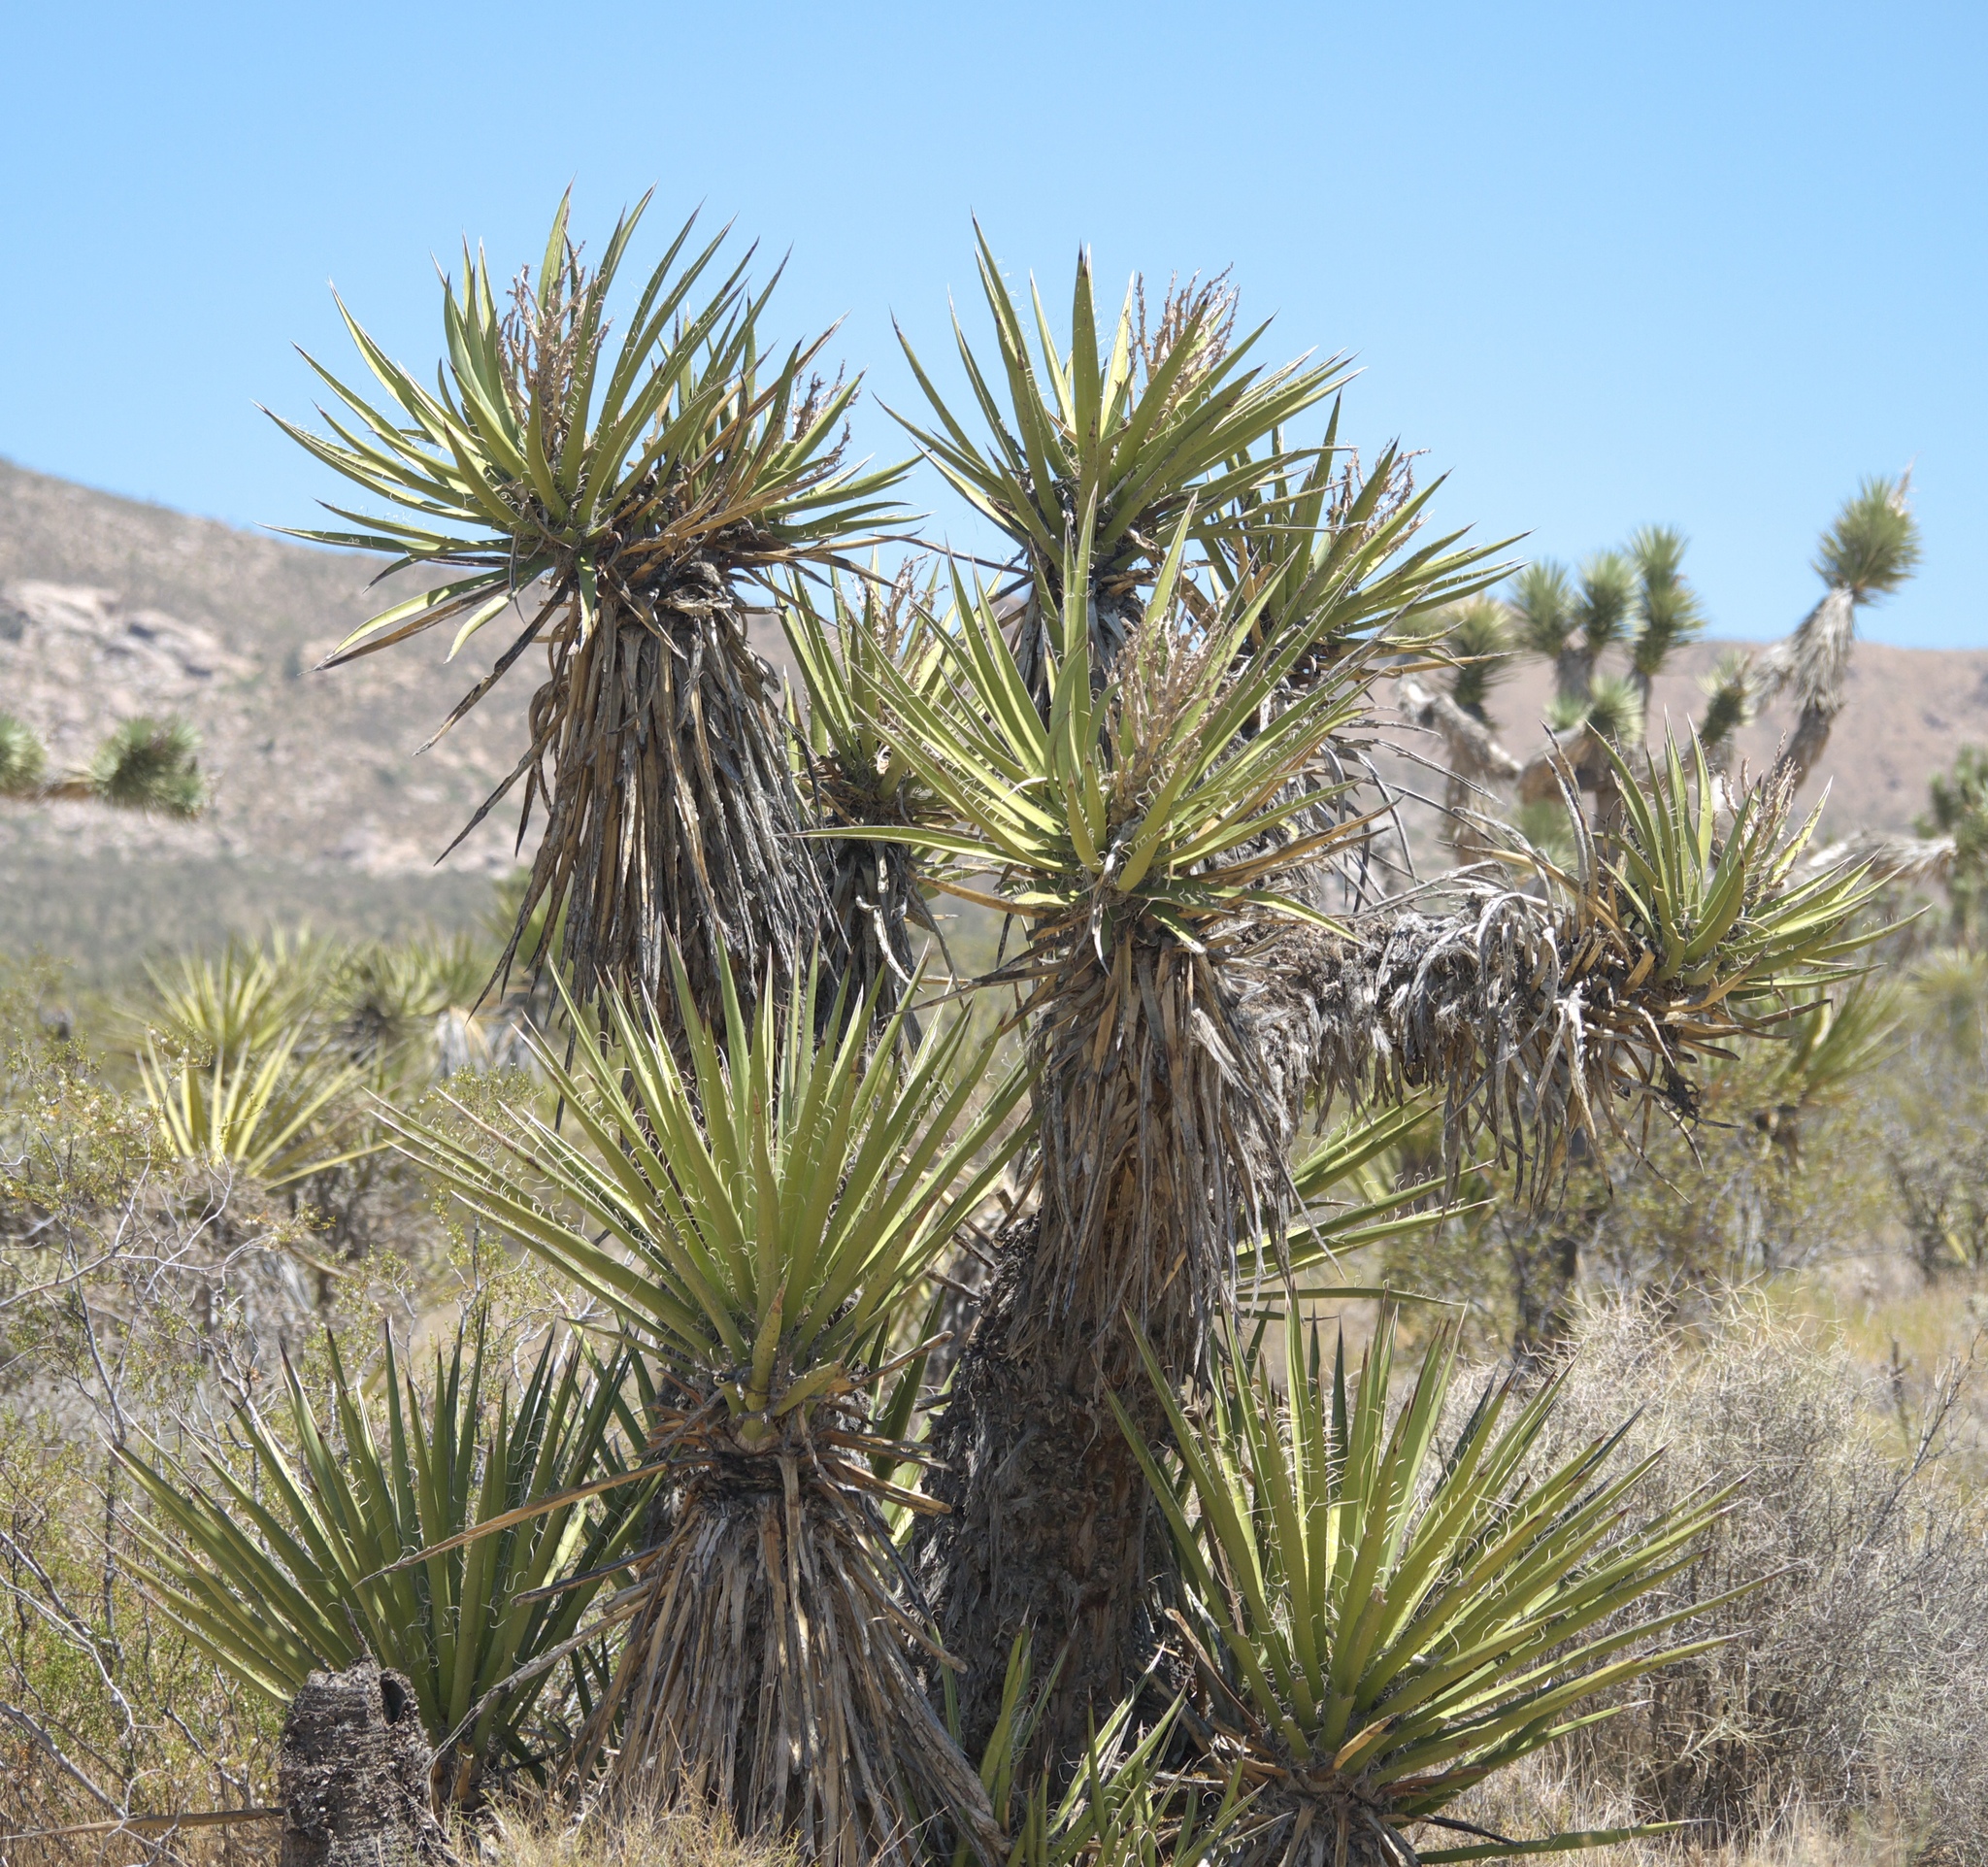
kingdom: Plantae
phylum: Tracheophyta
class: Liliopsida
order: Asparagales
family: Asparagaceae
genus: Yucca
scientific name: Yucca schidigera
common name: Mojave yucca
